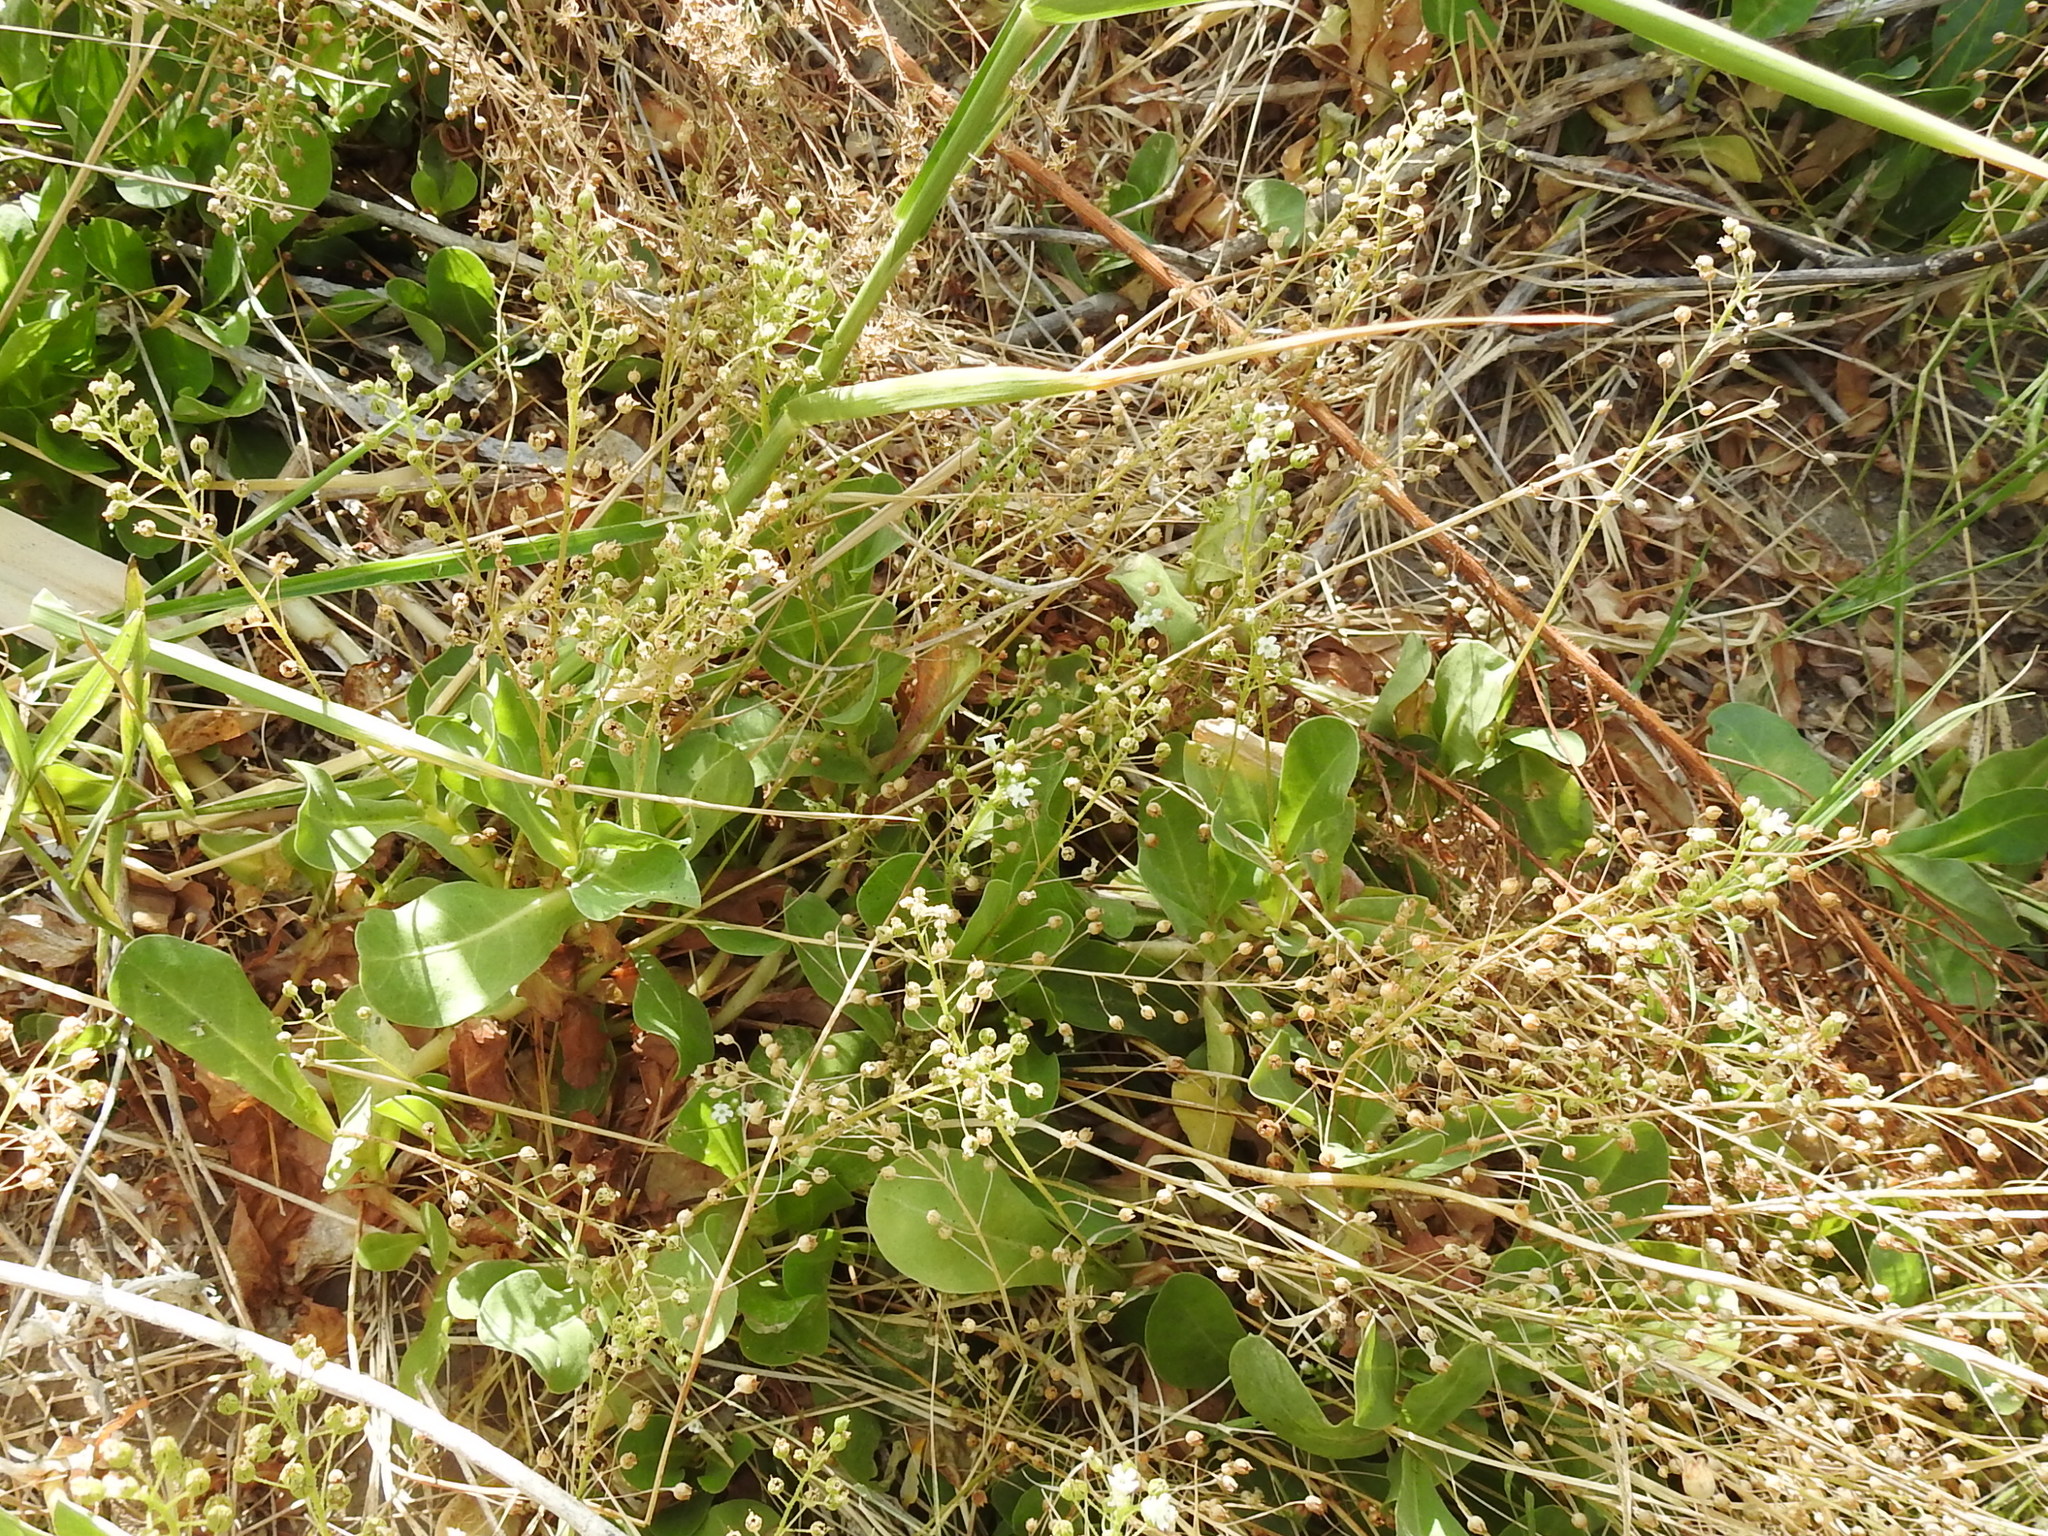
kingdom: Plantae
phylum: Tracheophyta
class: Magnoliopsida
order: Ericales
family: Primulaceae
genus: Samolus
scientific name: Samolus ebracteatus
